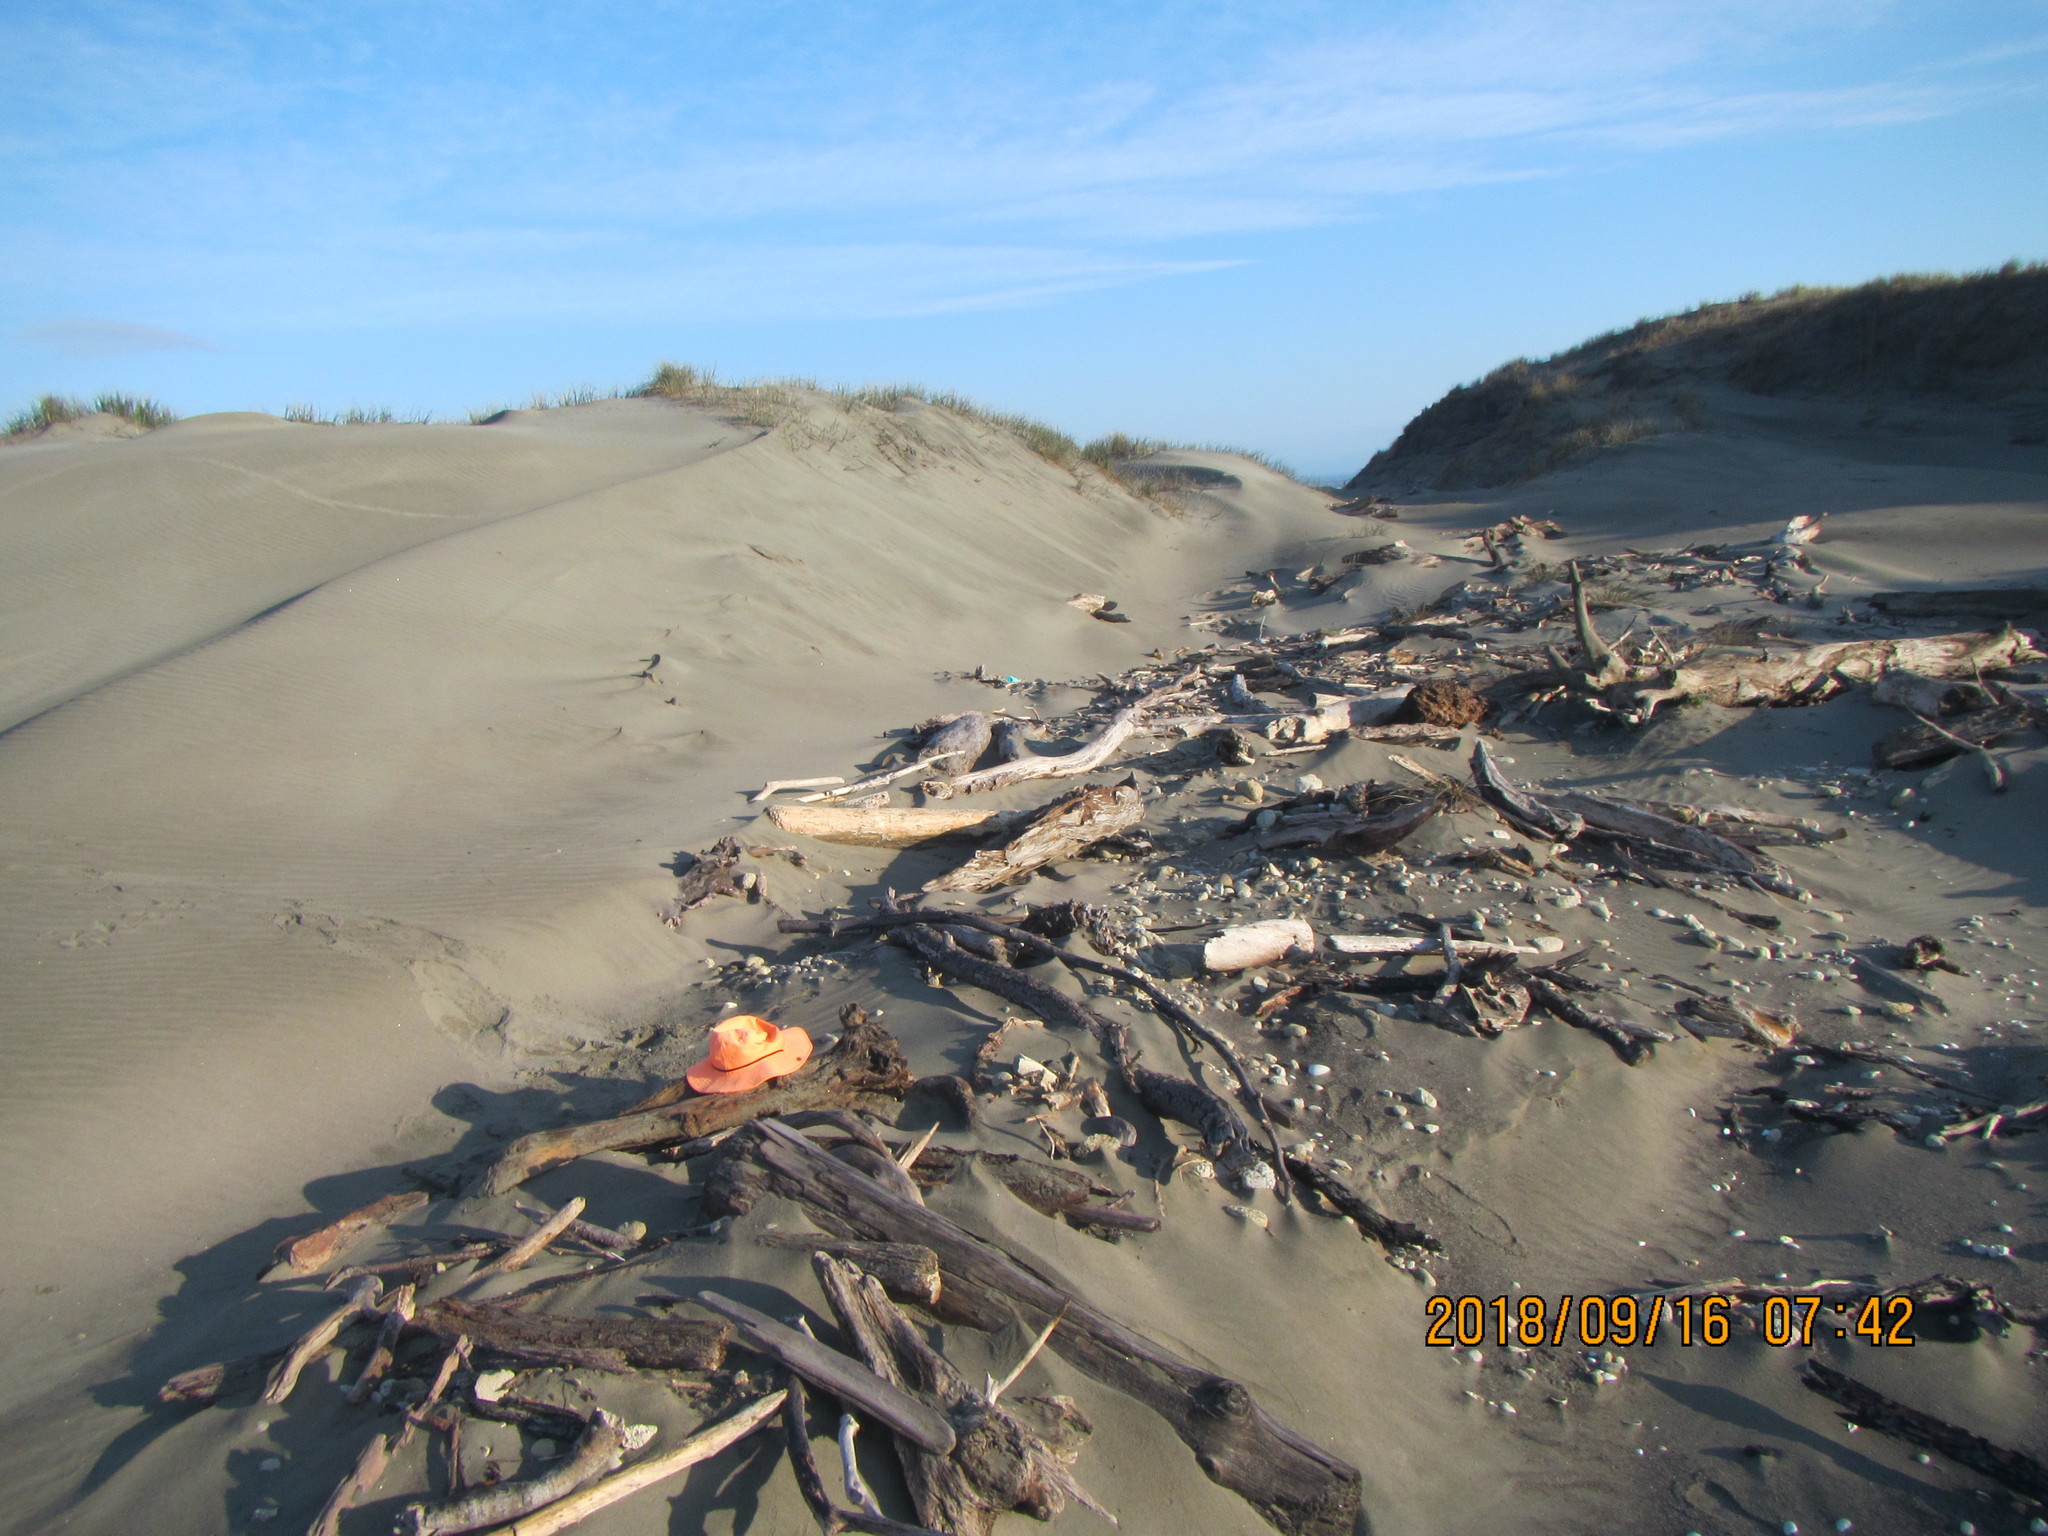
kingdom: Animalia
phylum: Arthropoda
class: Arachnida
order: Araneae
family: Theridiidae
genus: Steatoda
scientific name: Steatoda capensis
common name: Cobweb weaver
